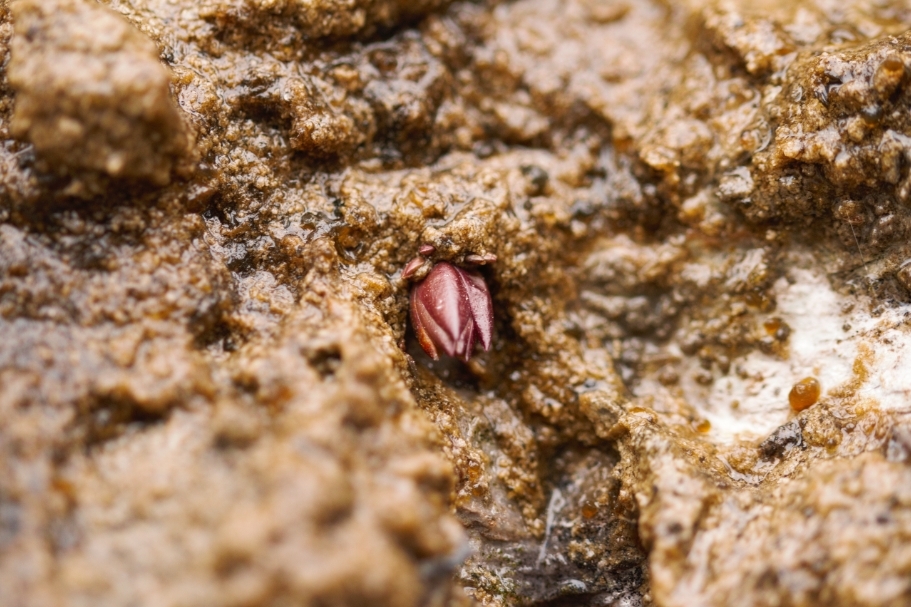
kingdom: Plantae
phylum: Tracheophyta
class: Magnoliopsida
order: Lamiales
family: Lentibulariaceae
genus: Pinguicula
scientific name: Pinguicula longifolia
